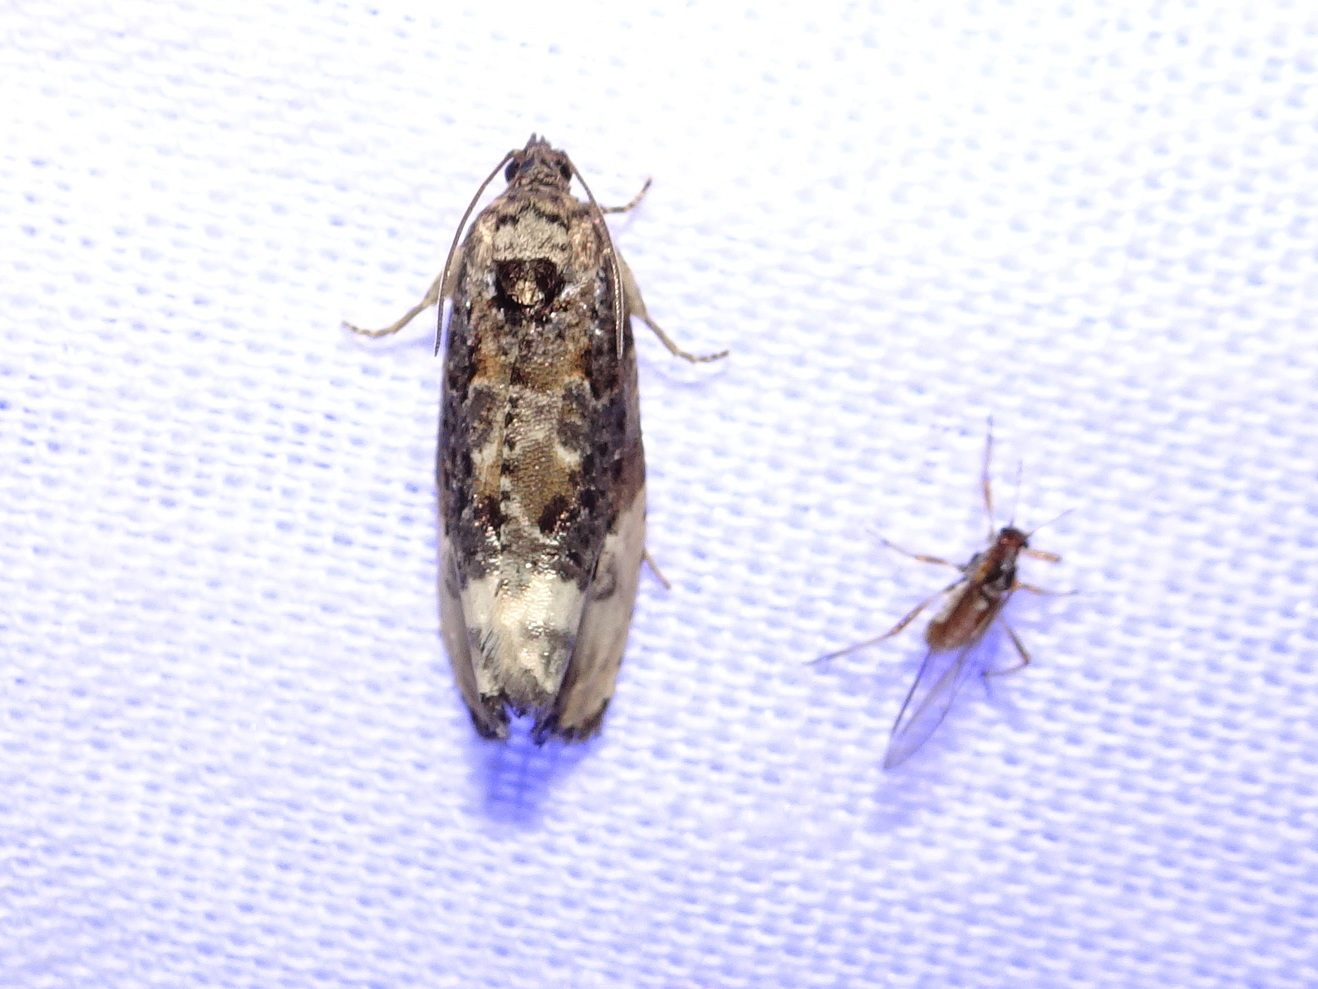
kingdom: Animalia
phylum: Arthropoda
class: Insecta
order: Lepidoptera
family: Tortricidae
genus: Hedya
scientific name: Hedya nubiferana
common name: Marbled orchard tortrix
